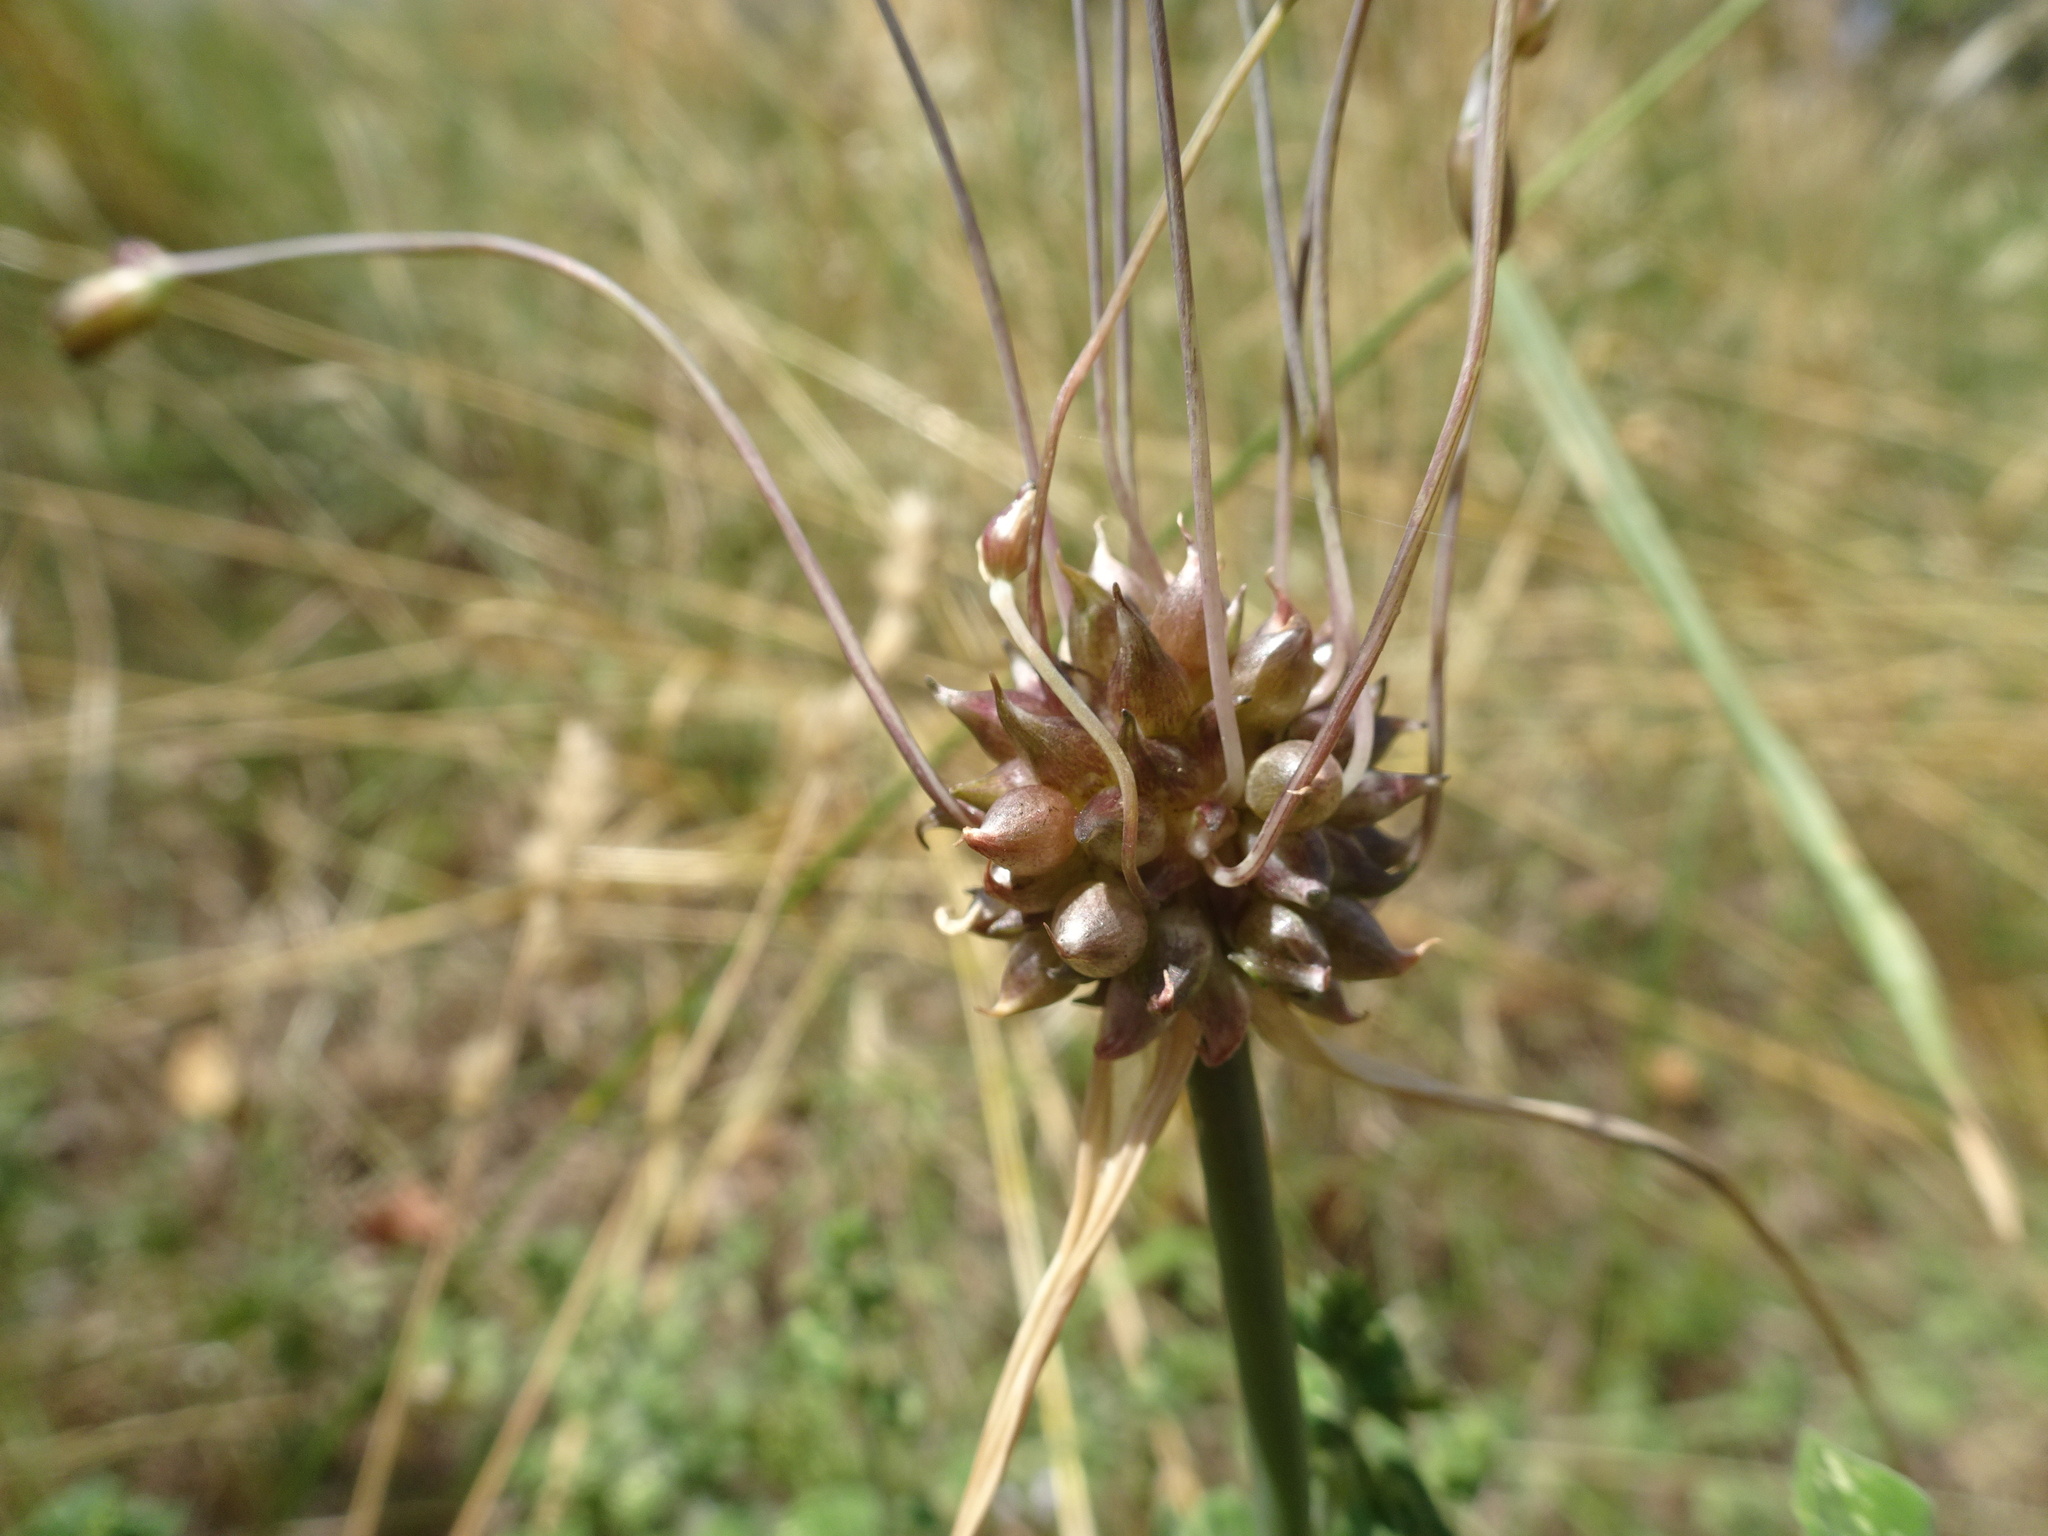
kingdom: Plantae
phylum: Tracheophyta
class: Liliopsida
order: Asparagales
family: Amaryllidaceae
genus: Allium
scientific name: Allium oleraceum
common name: Field garlic
